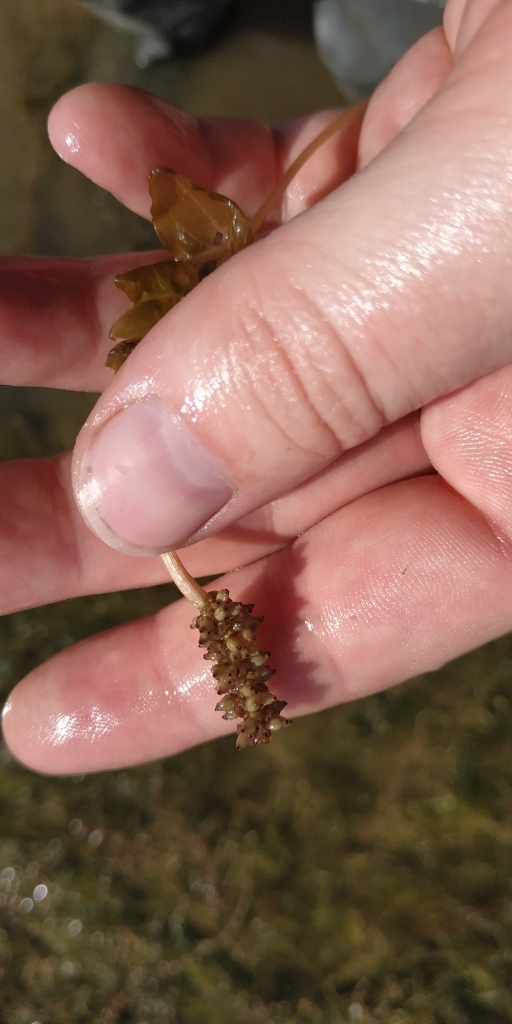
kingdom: Plantae
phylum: Tracheophyta
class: Liliopsida
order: Alismatales
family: Potamogetonaceae
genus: Potamogeton
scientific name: Potamogeton perfoliatus
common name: Perfoliate pondweed
